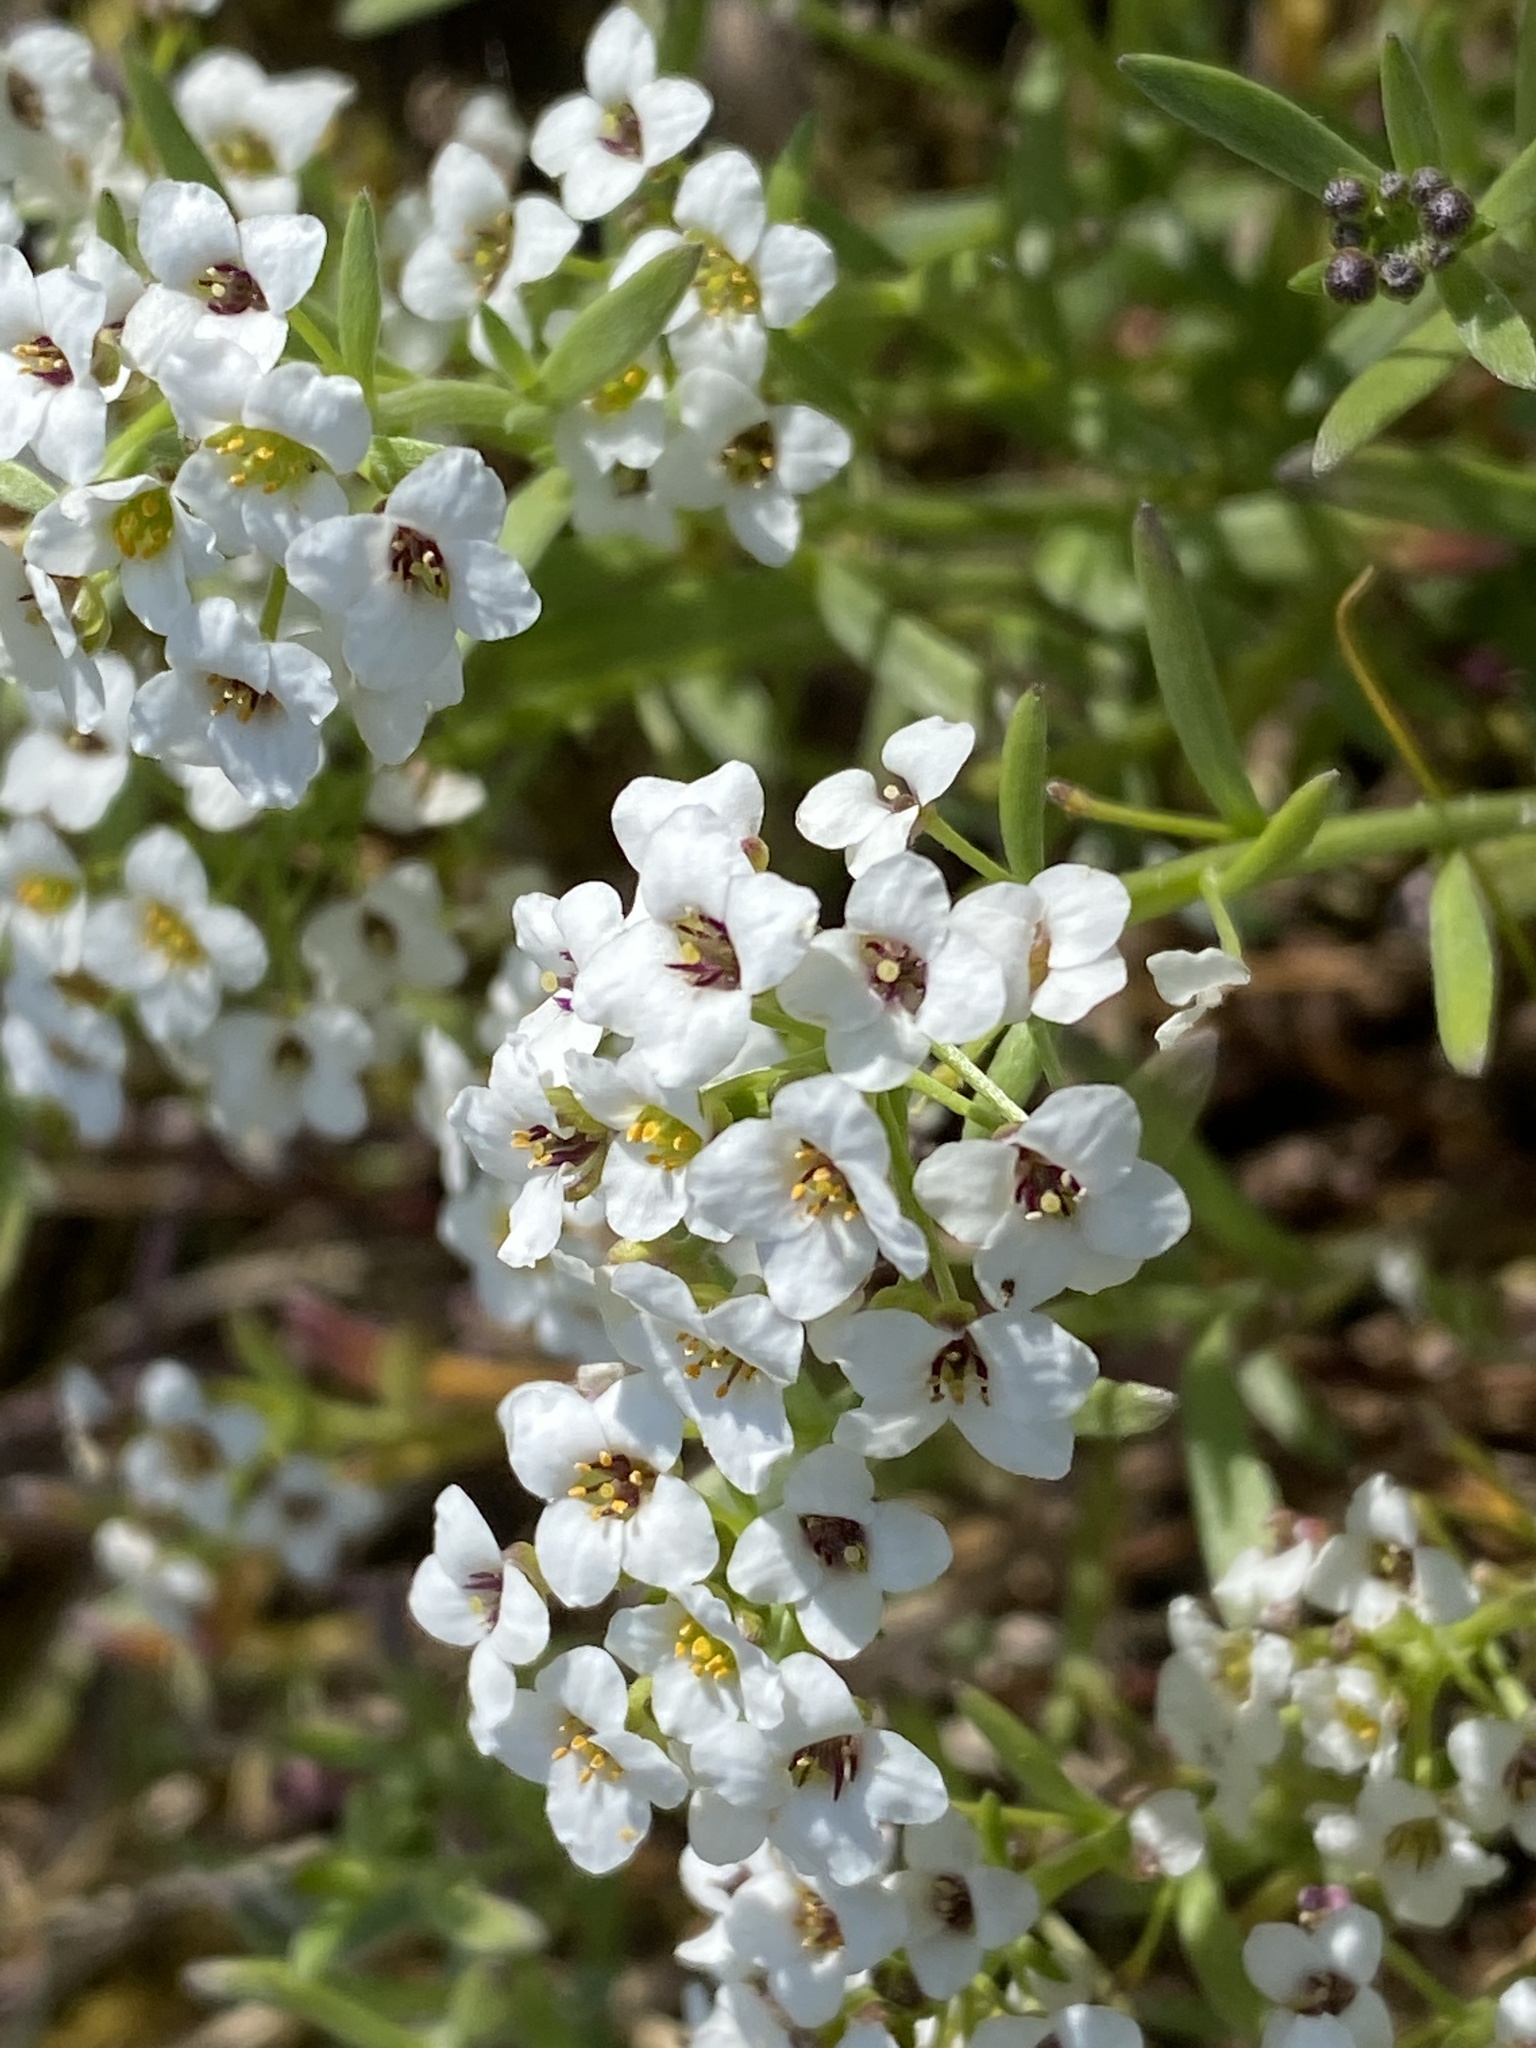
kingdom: Plantae
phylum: Tracheophyta
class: Magnoliopsida
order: Brassicales
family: Brassicaceae
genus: Lobularia
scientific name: Lobularia maritima
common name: Sweet alison
